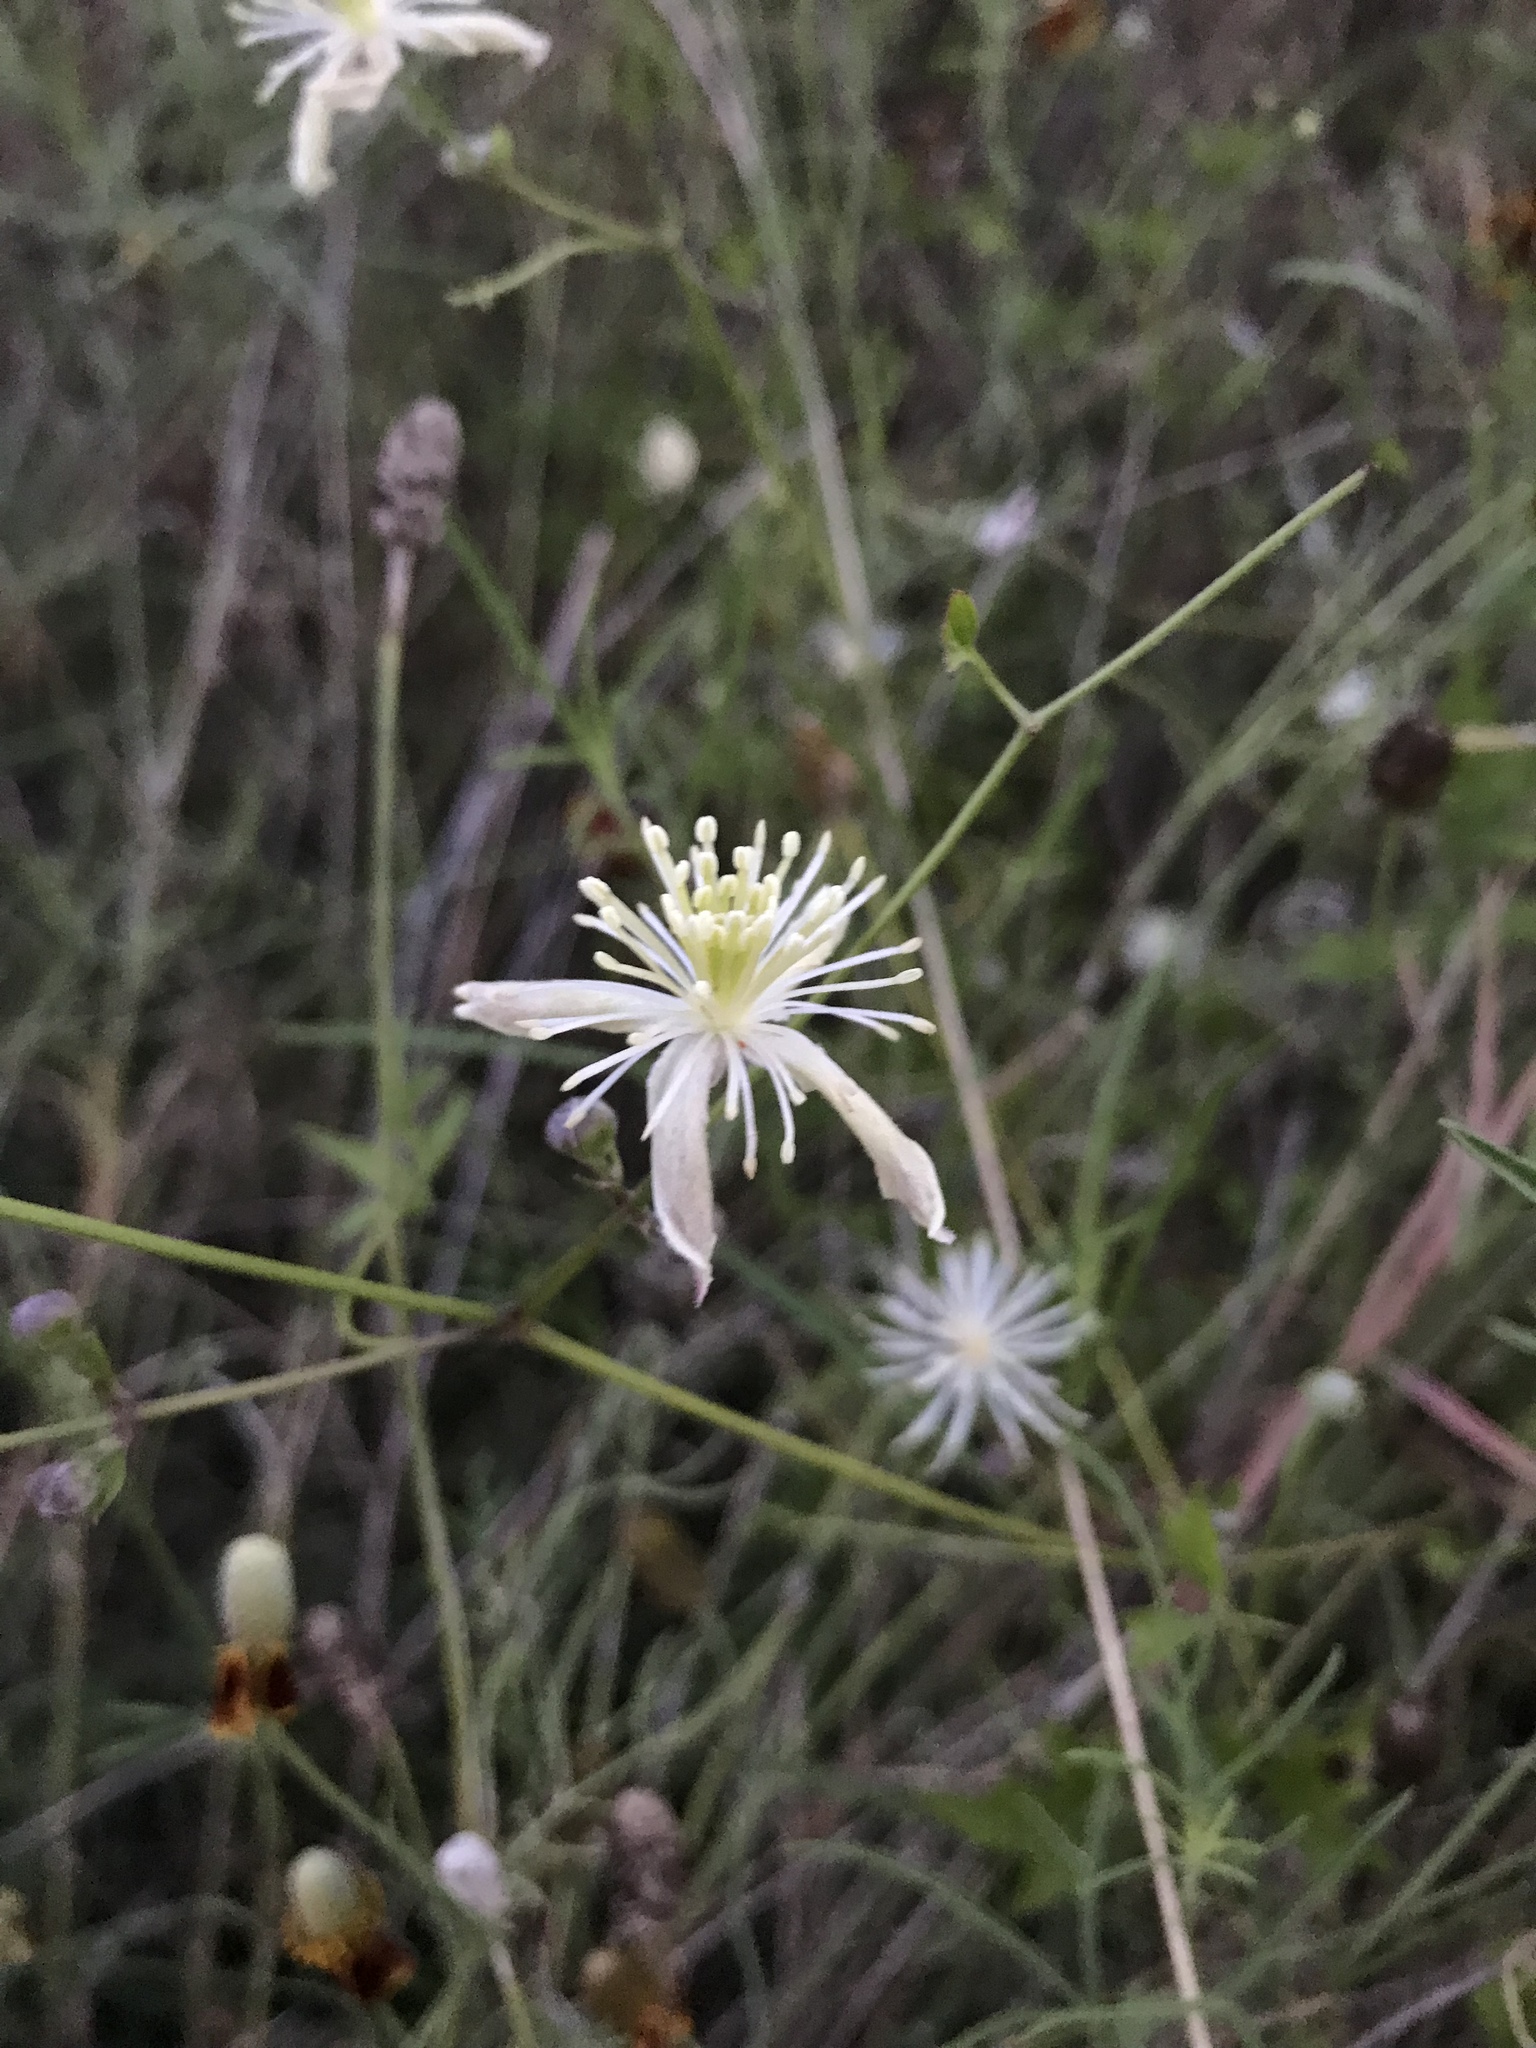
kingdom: Plantae
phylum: Tracheophyta
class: Magnoliopsida
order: Ranunculales
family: Ranunculaceae
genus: Clematis
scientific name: Clematis drummondii
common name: Texas virgin's bower
